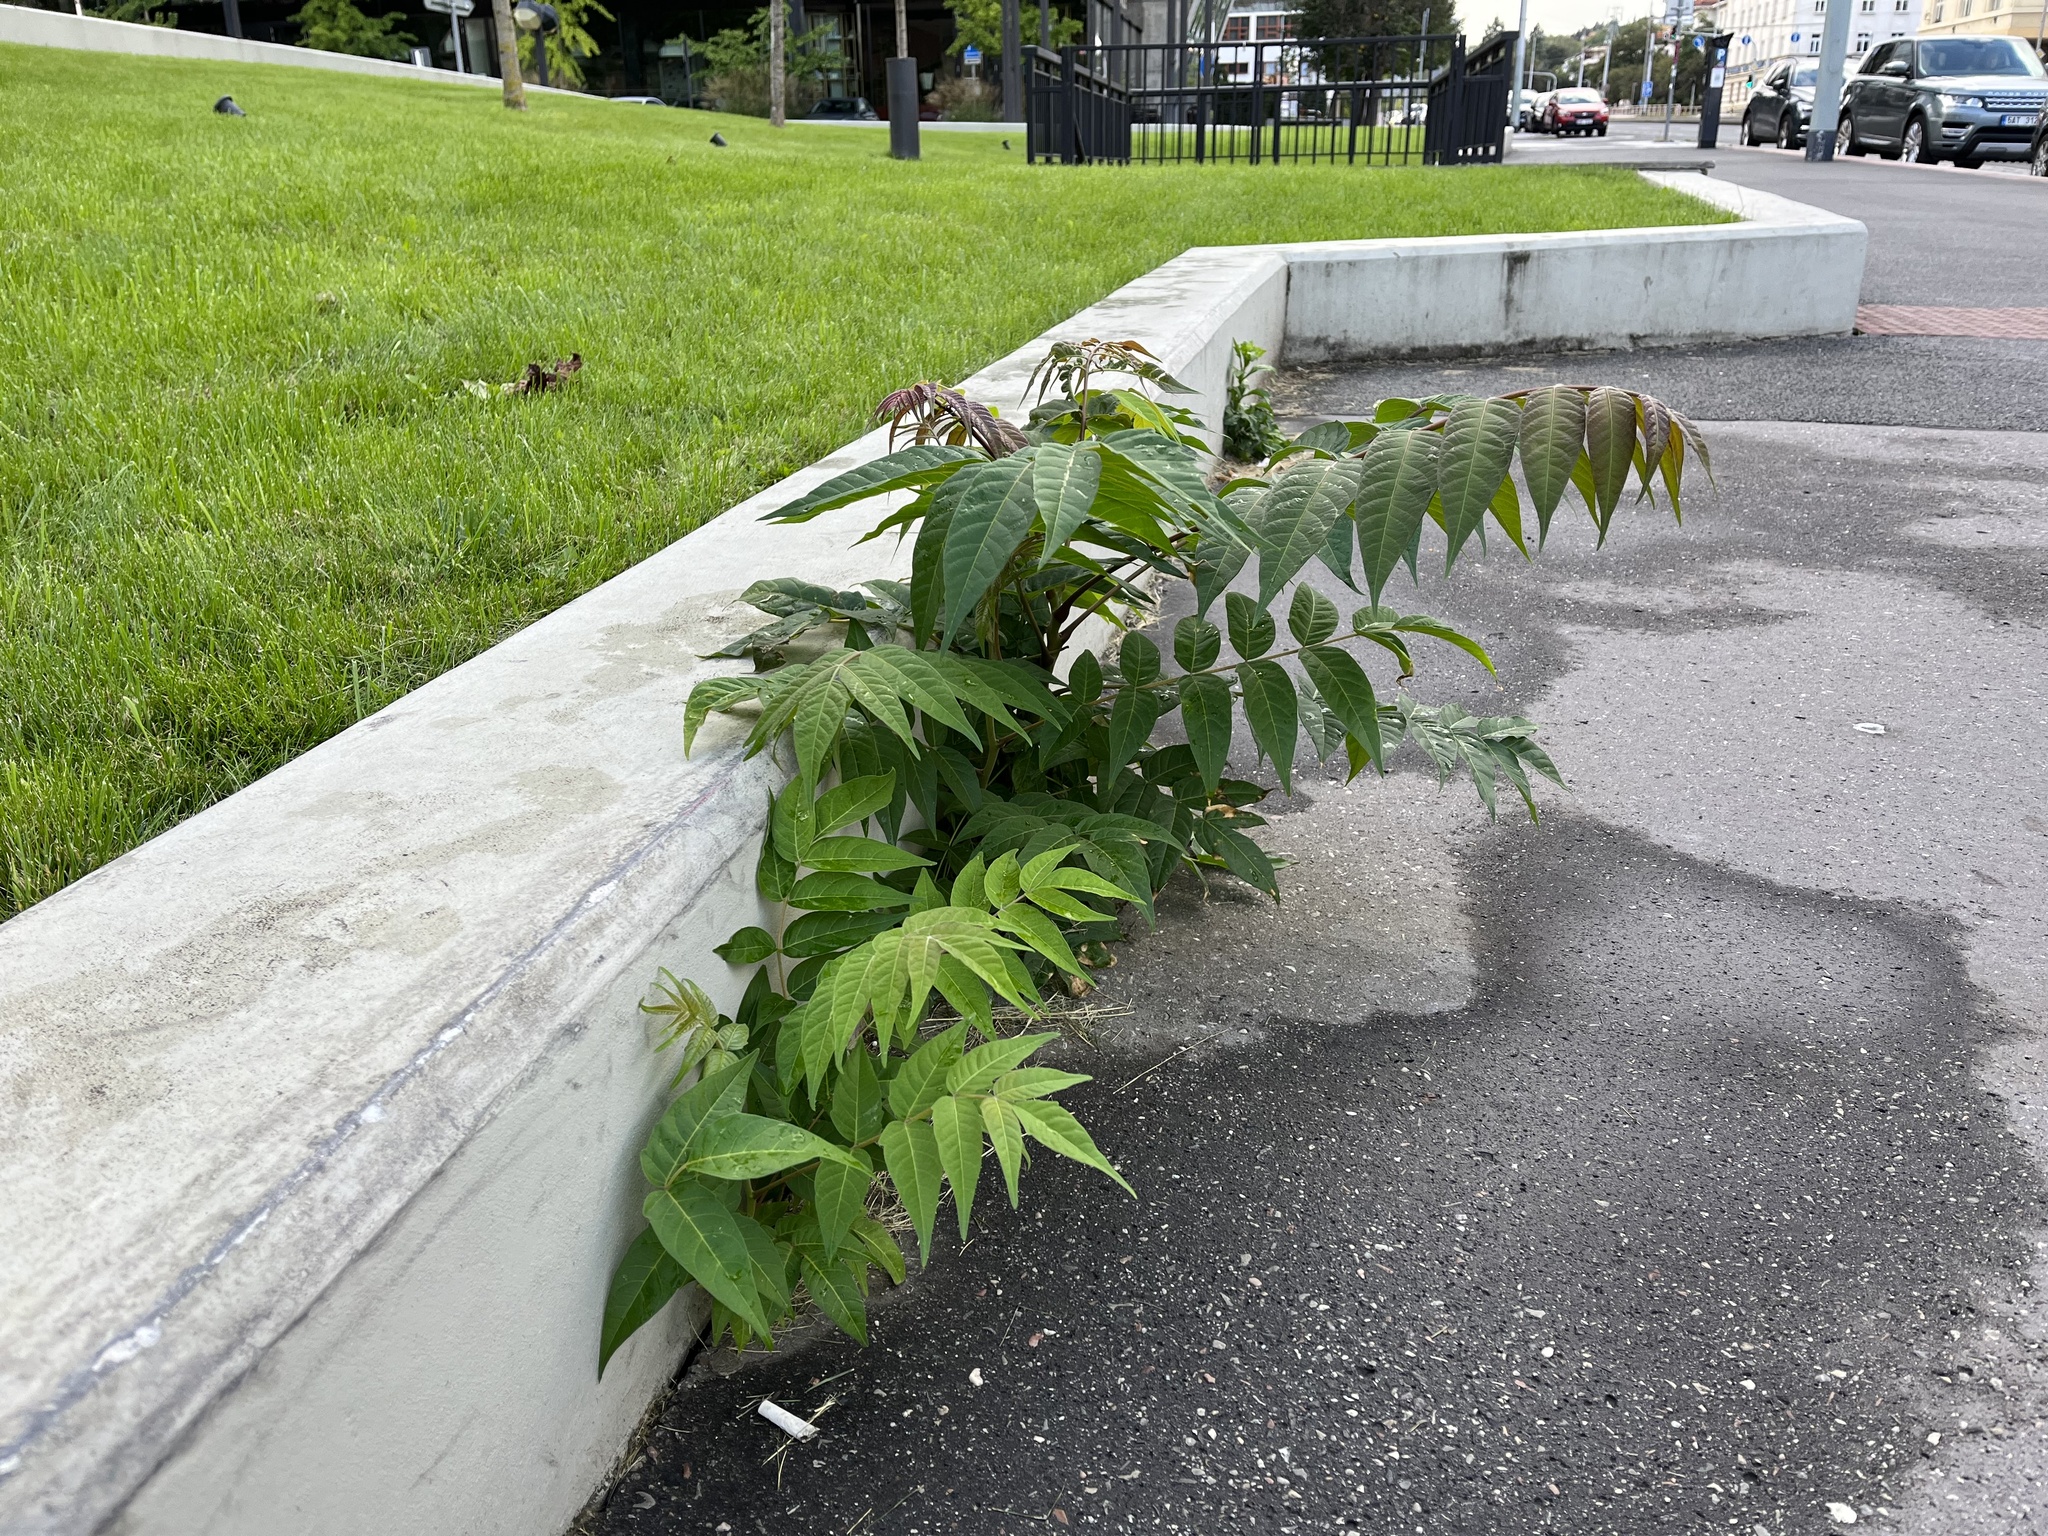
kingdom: Plantae
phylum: Tracheophyta
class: Magnoliopsida
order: Sapindales
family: Simaroubaceae
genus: Ailanthus
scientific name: Ailanthus altissima
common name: Tree-of-heaven
